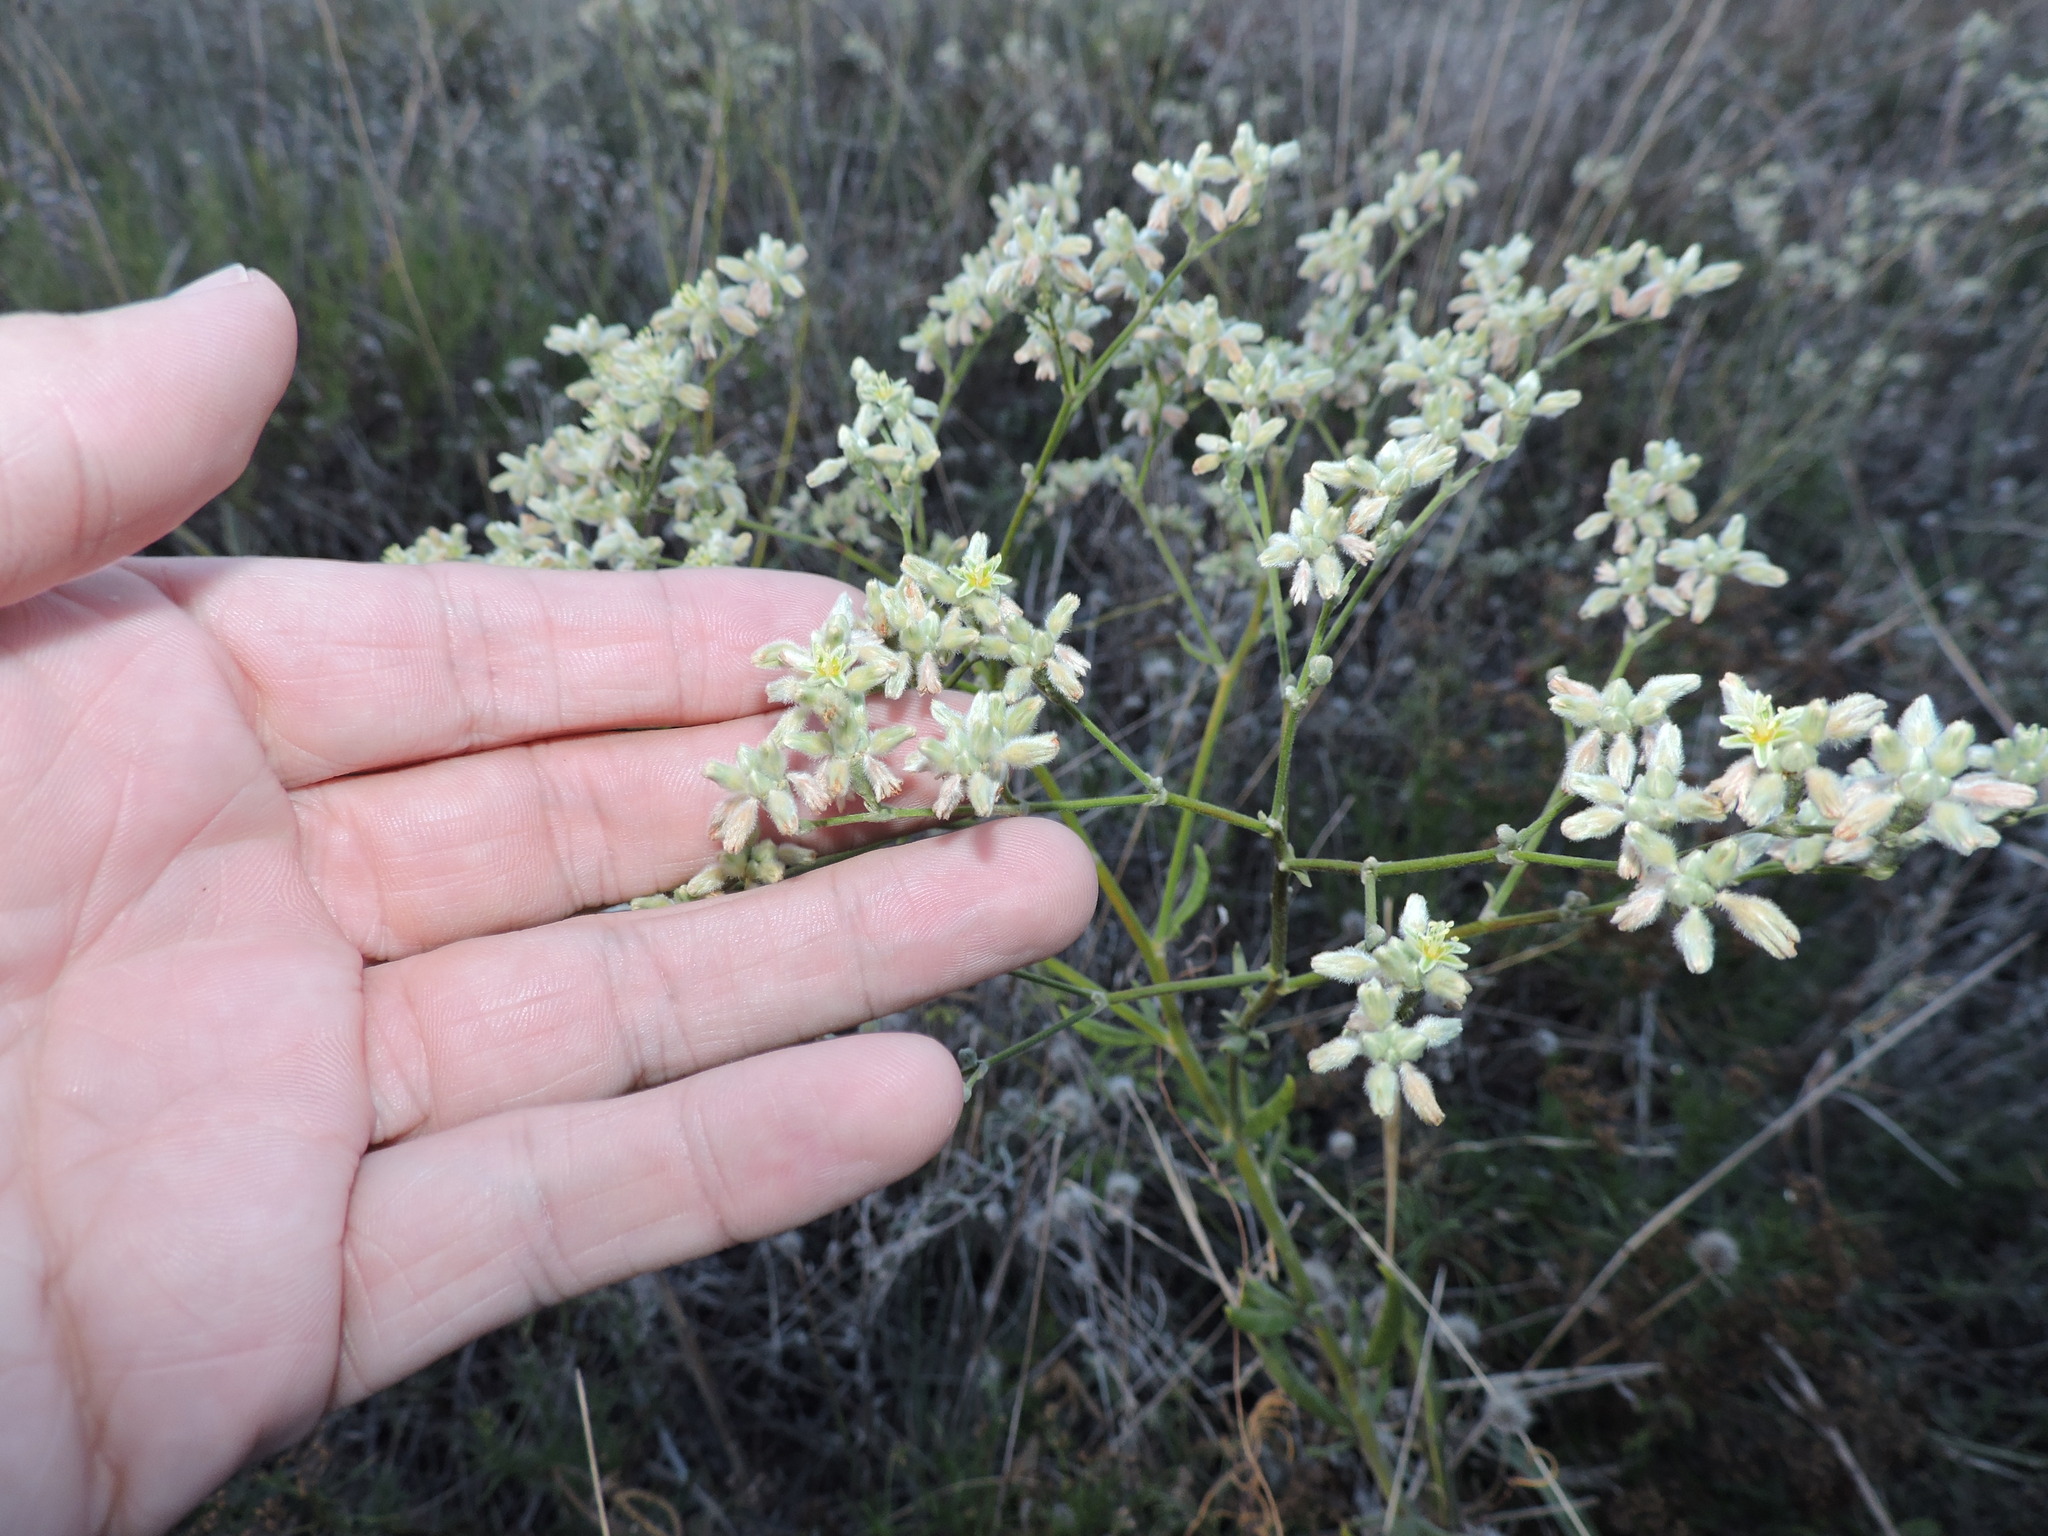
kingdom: Plantae
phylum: Tracheophyta
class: Magnoliopsida
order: Caryophyllales
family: Polygonaceae
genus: Eriogonum
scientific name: Eriogonum longifolium
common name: Longleaf wild buckwheat
